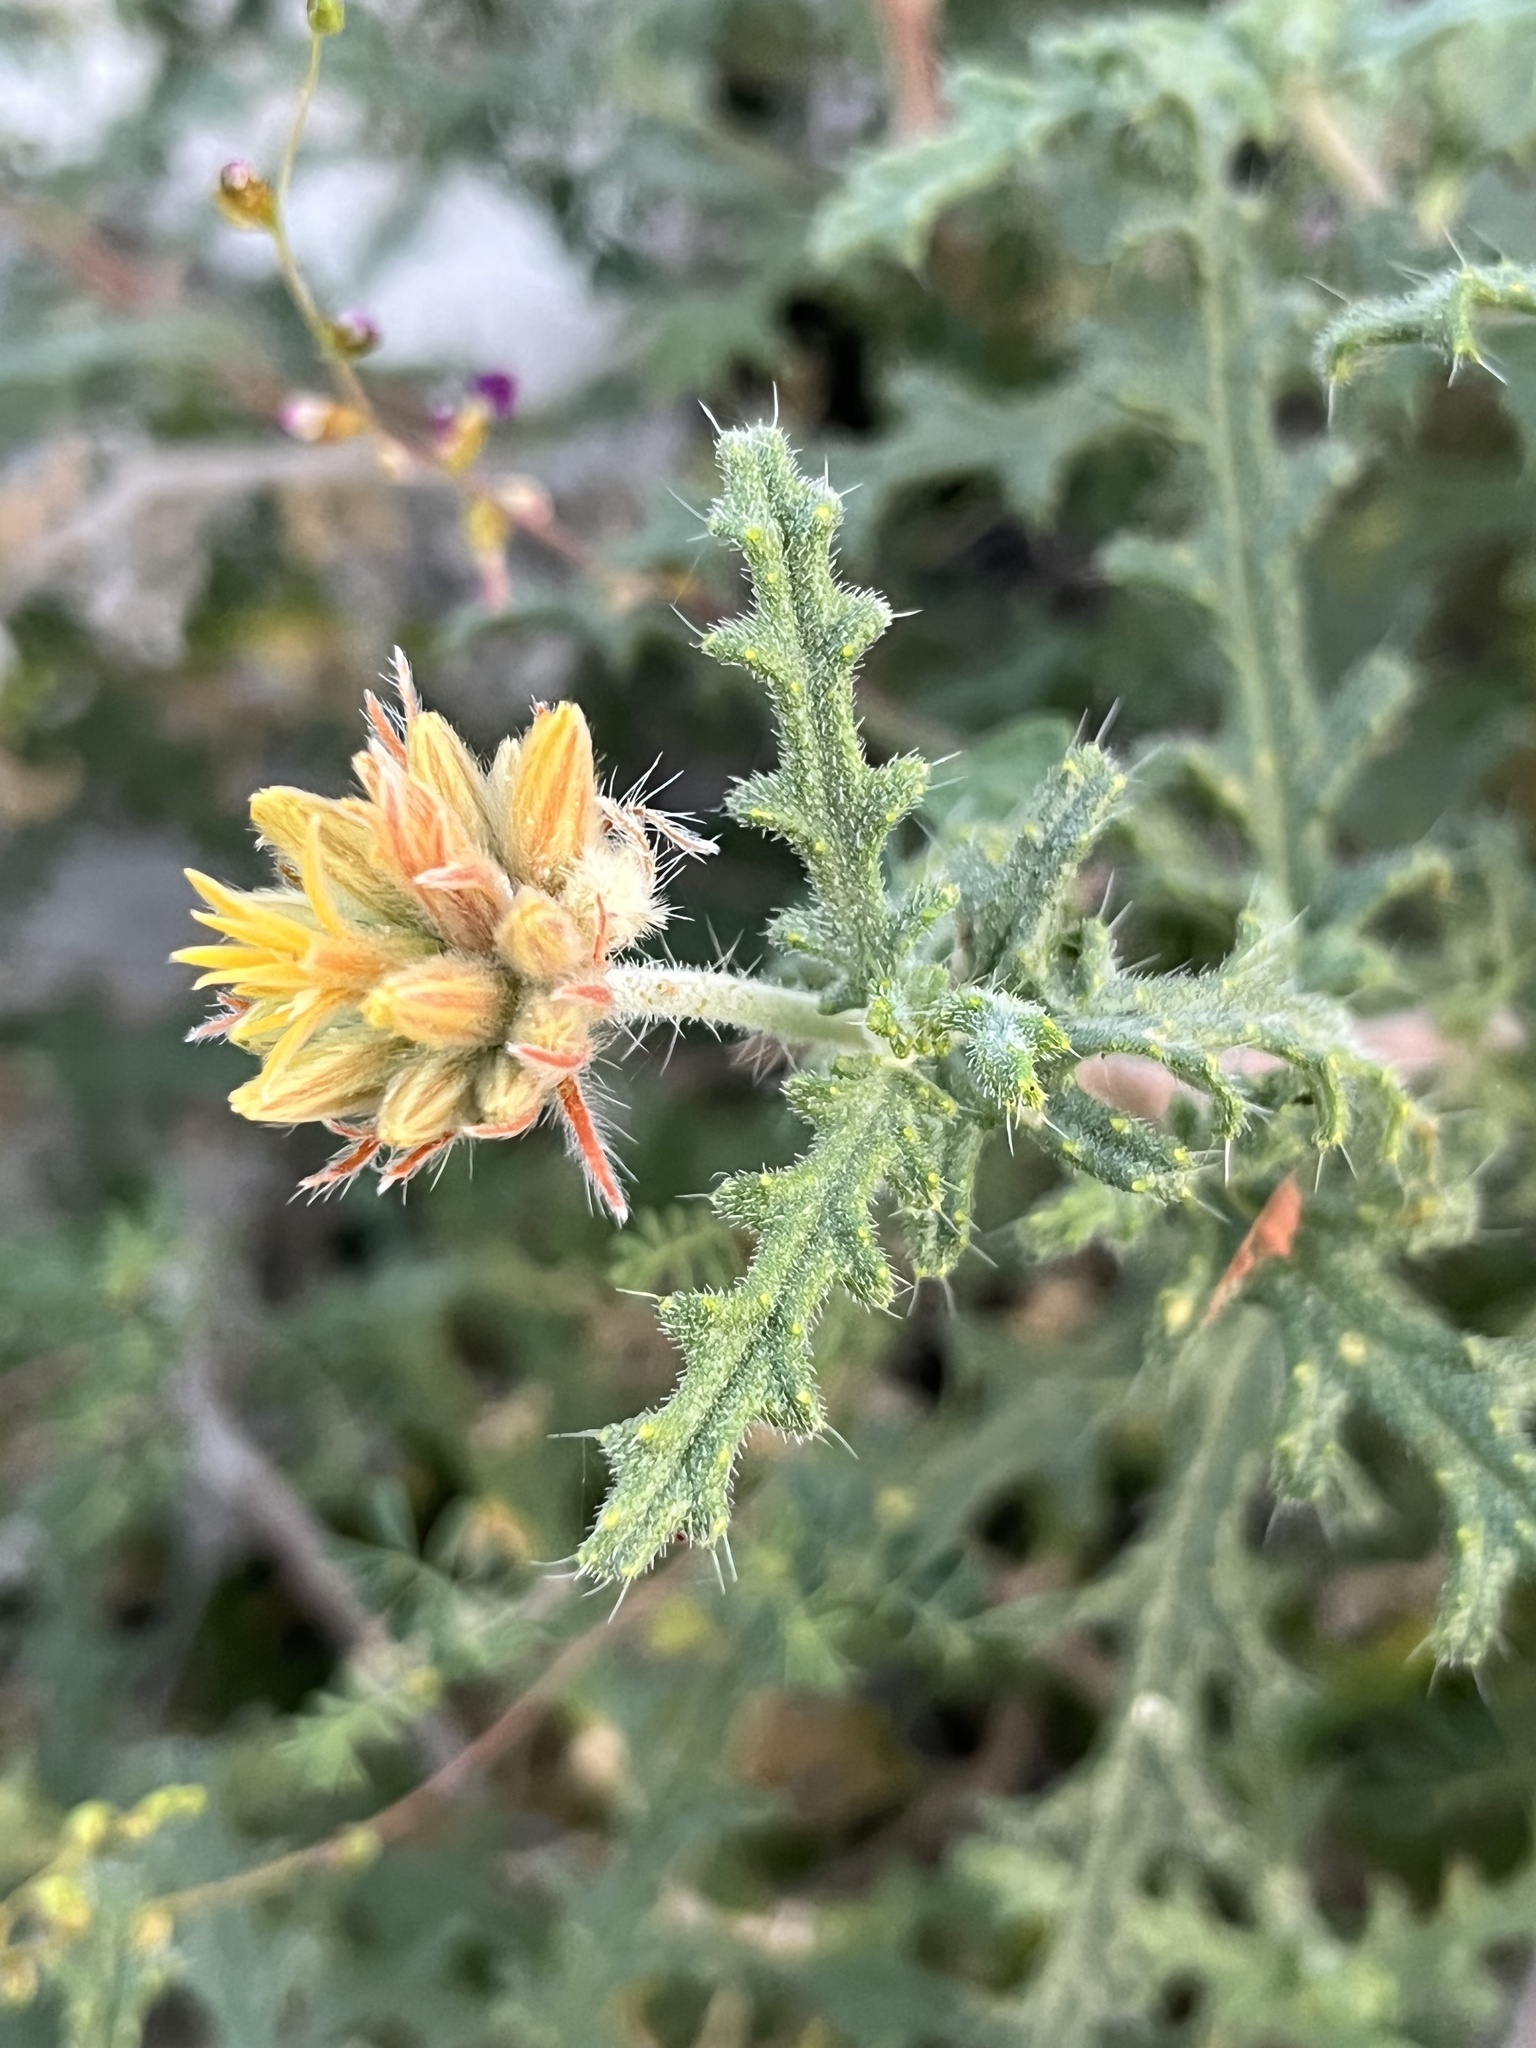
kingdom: Plantae
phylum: Tracheophyta
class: Magnoliopsida
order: Cornales
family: Loasaceae
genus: Cevallia
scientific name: Cevallia sinuata
